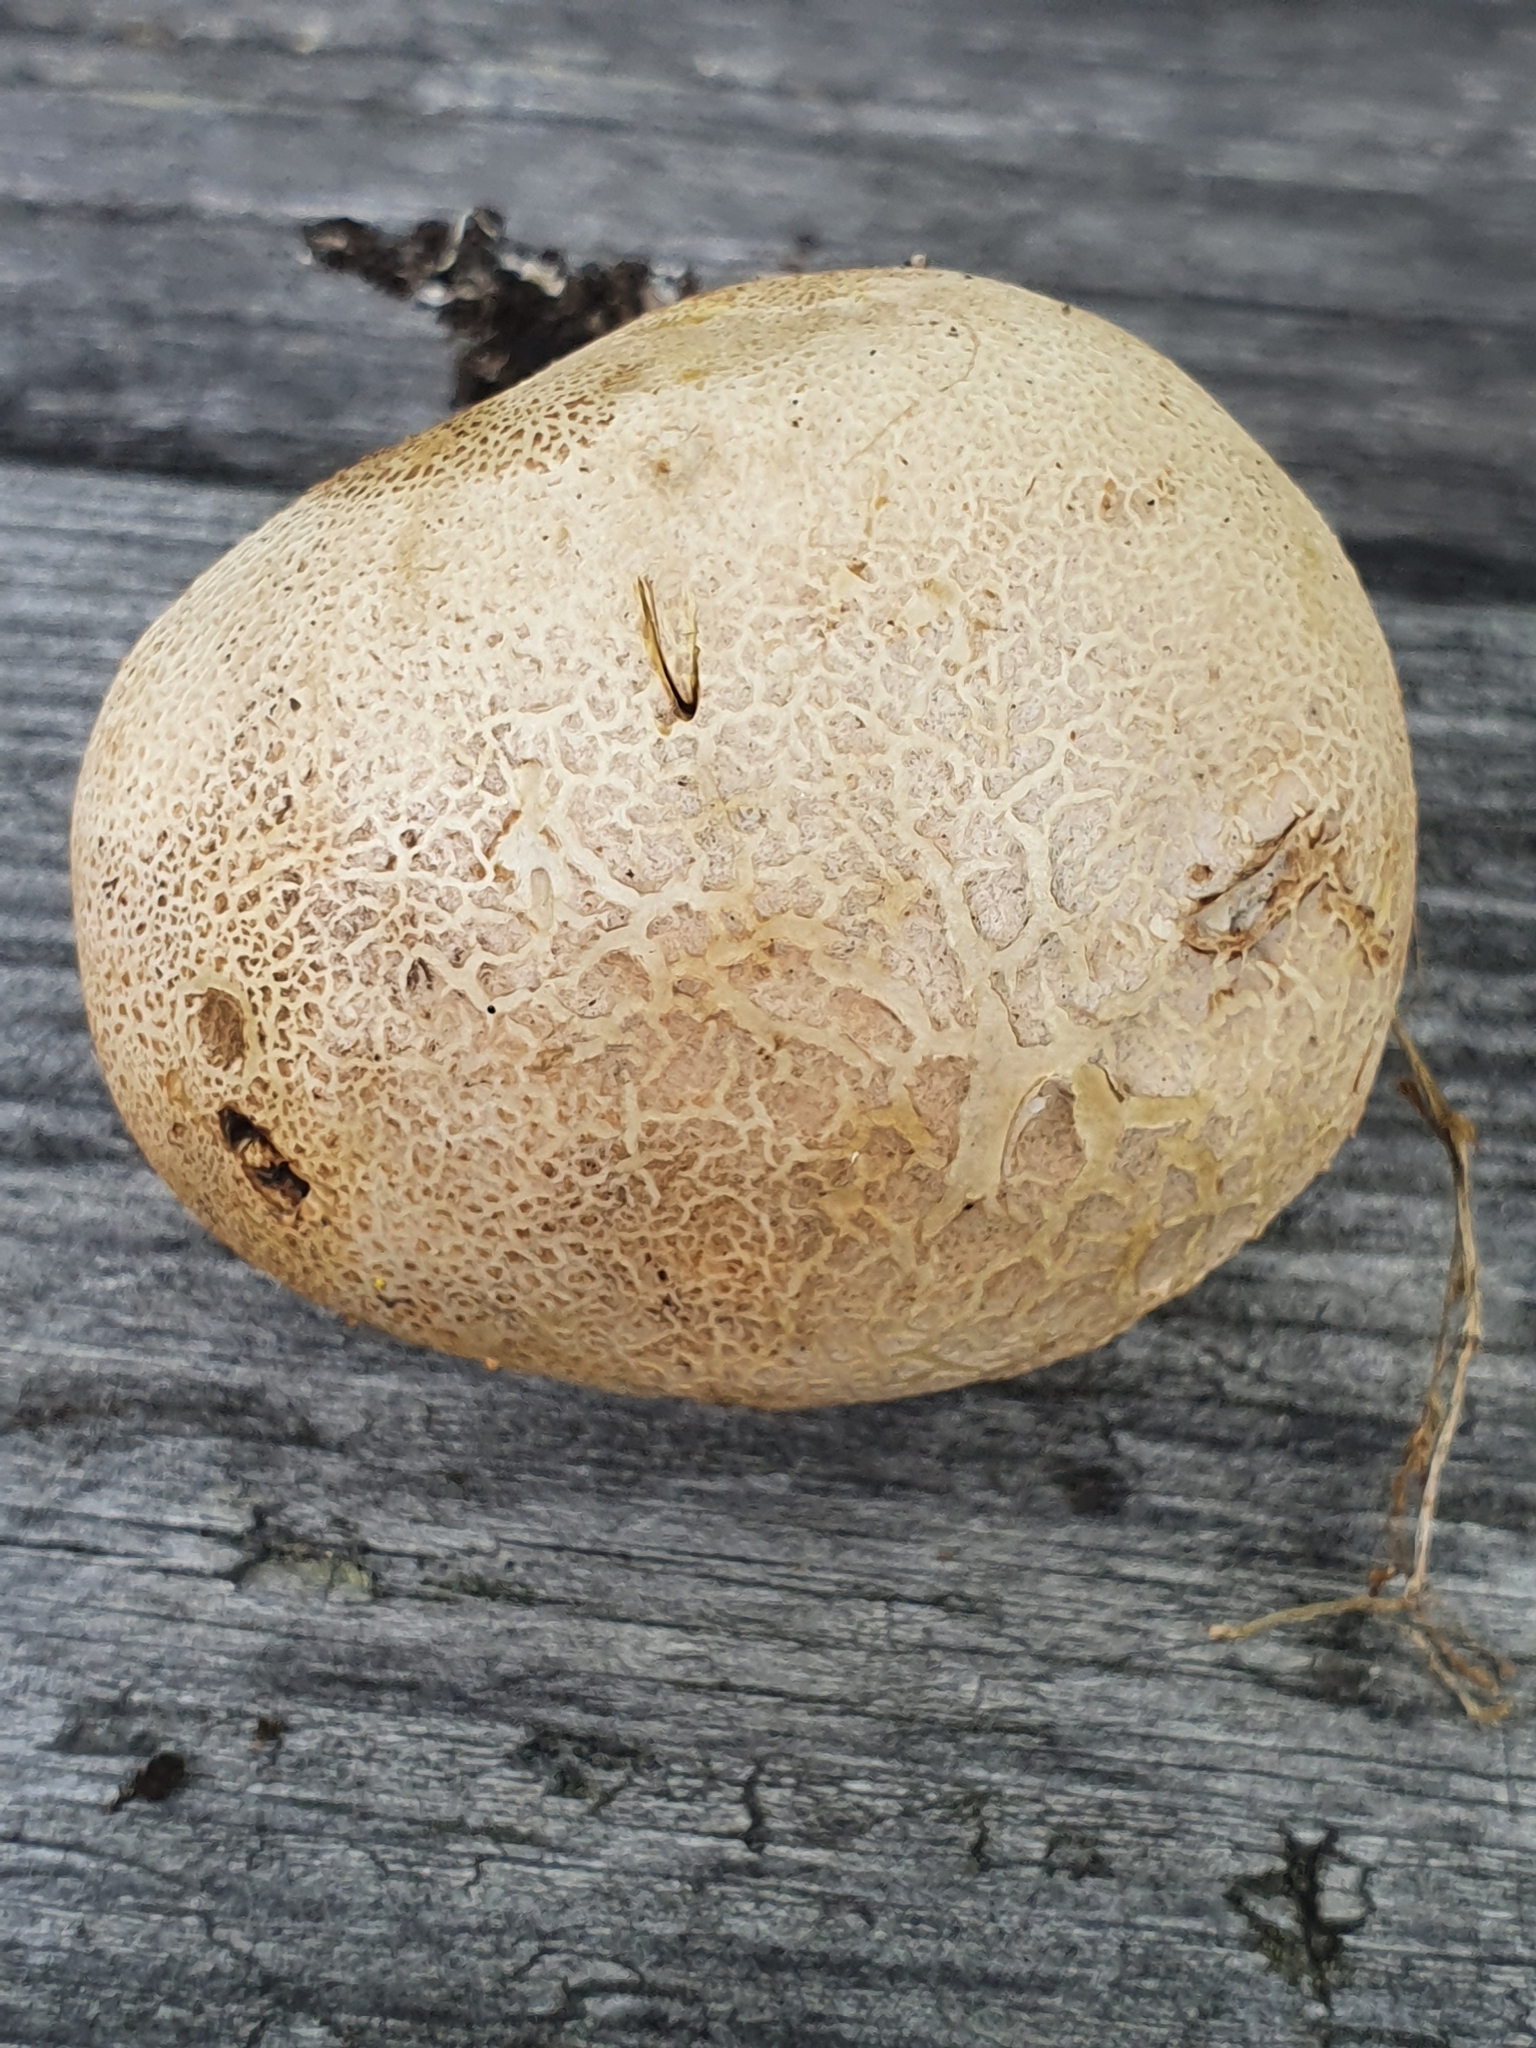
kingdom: Fungi
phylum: Basidiomycota
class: Agaricomycetes
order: Boletales
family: Sclerodermataceae
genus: Scleroderma
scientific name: Scleroderma citrinum
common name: Common earthball
